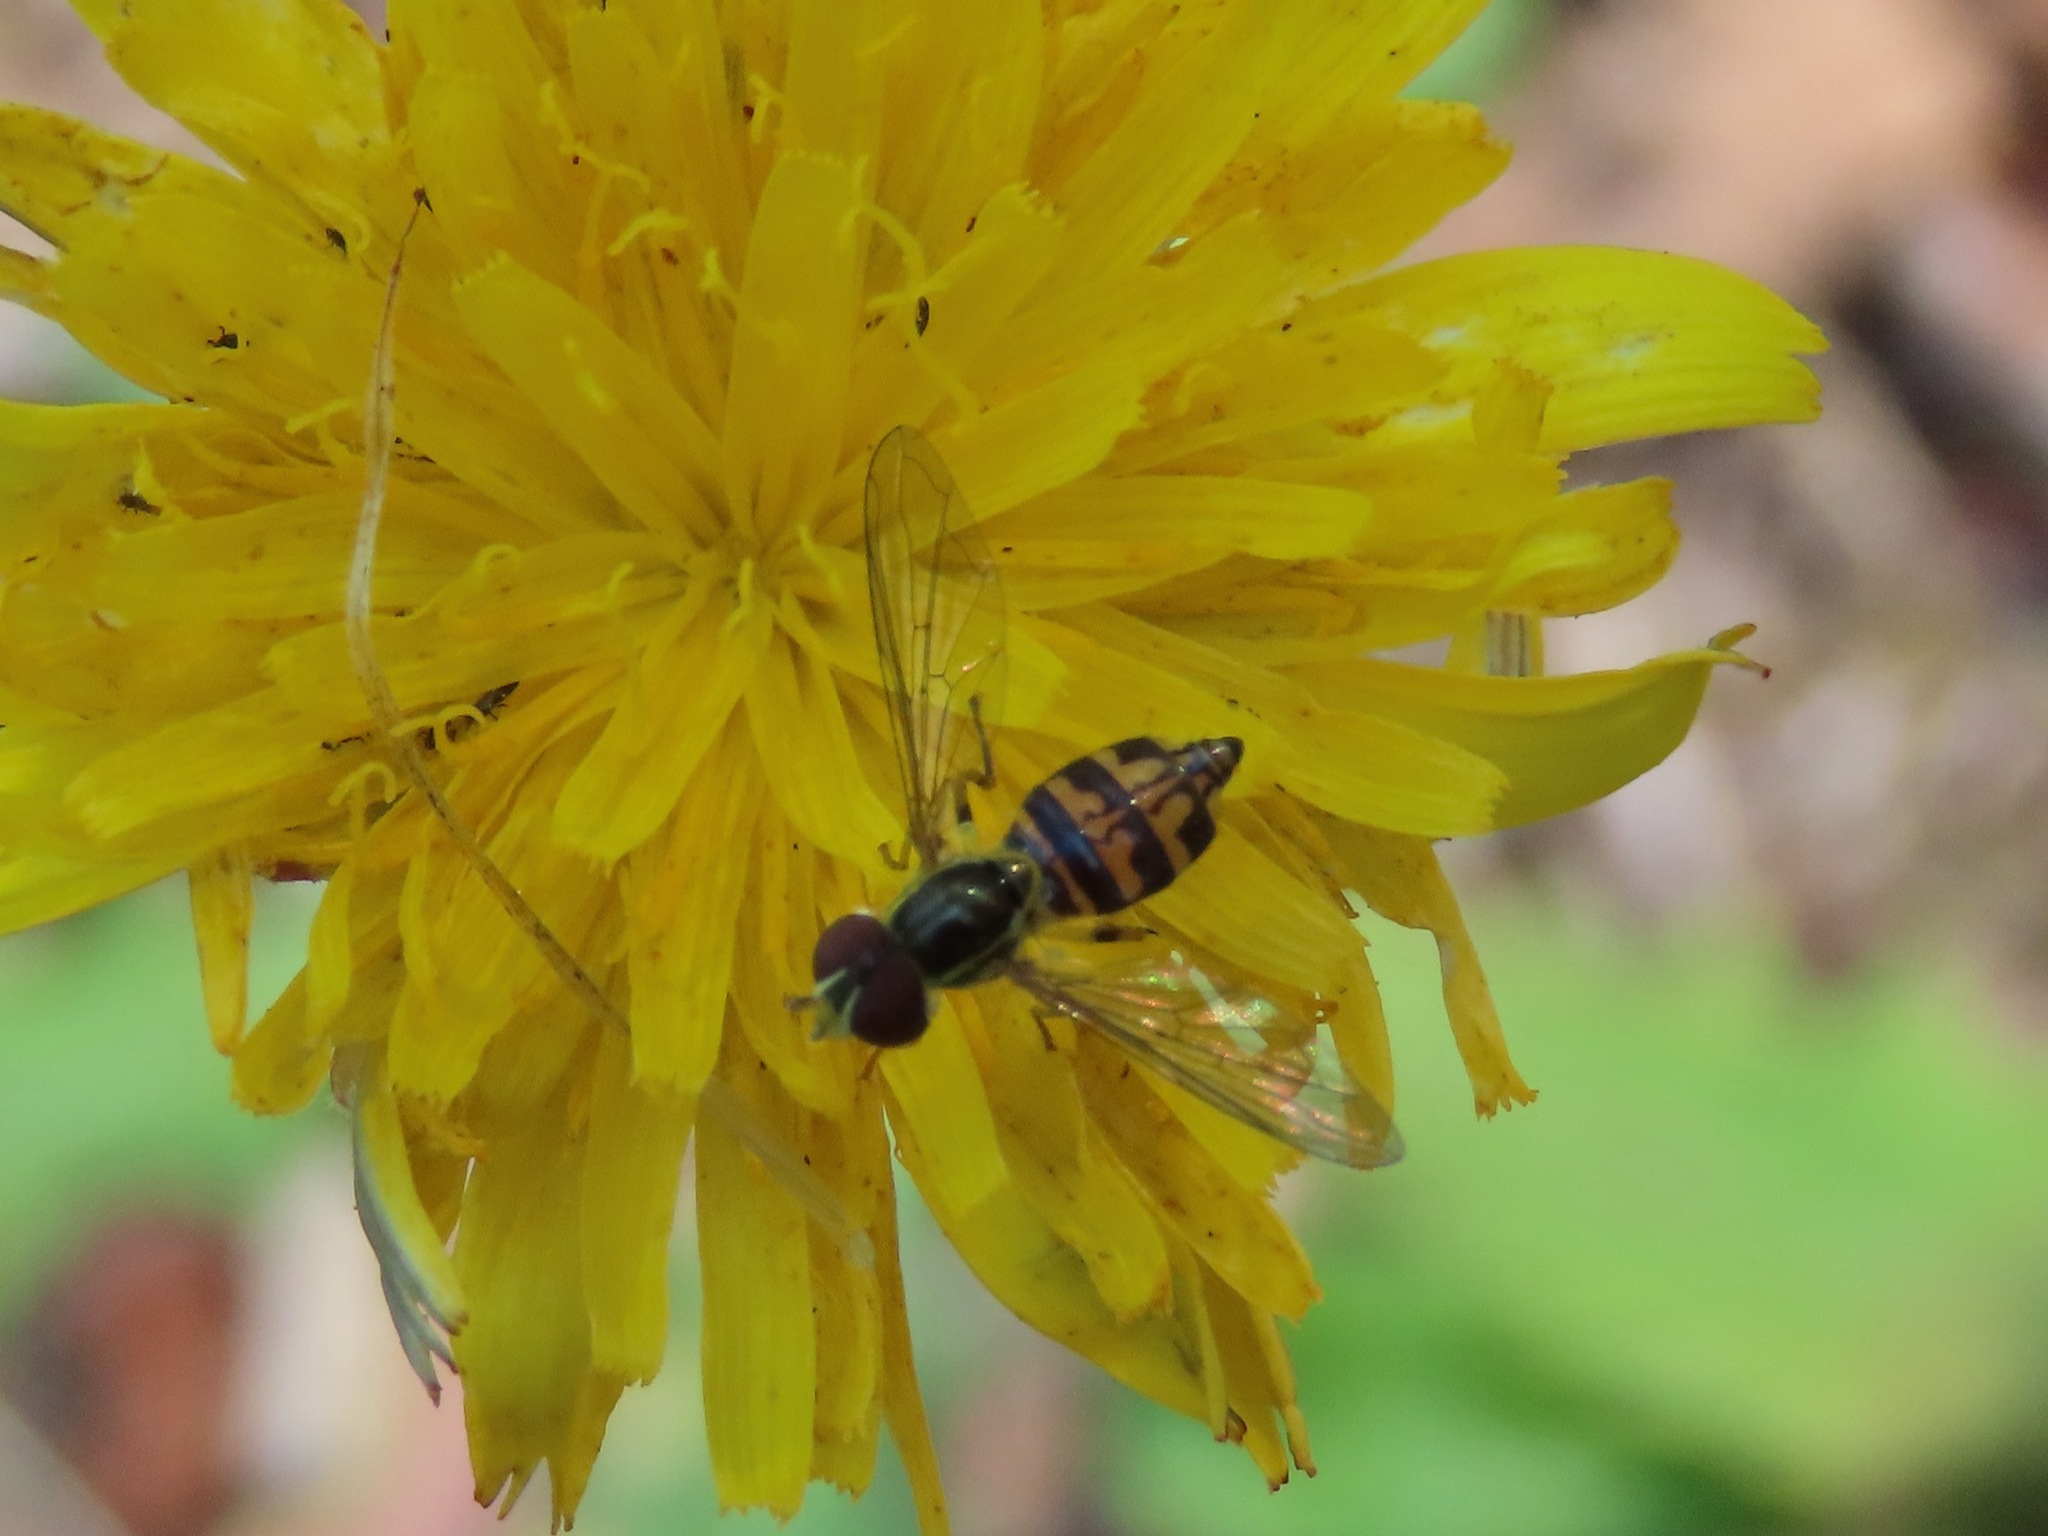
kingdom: Animalia
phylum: Arthropoda
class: Insecta
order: Diptera
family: Syrphidae
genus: Toxomerus
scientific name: Toxomerus occidentalis
